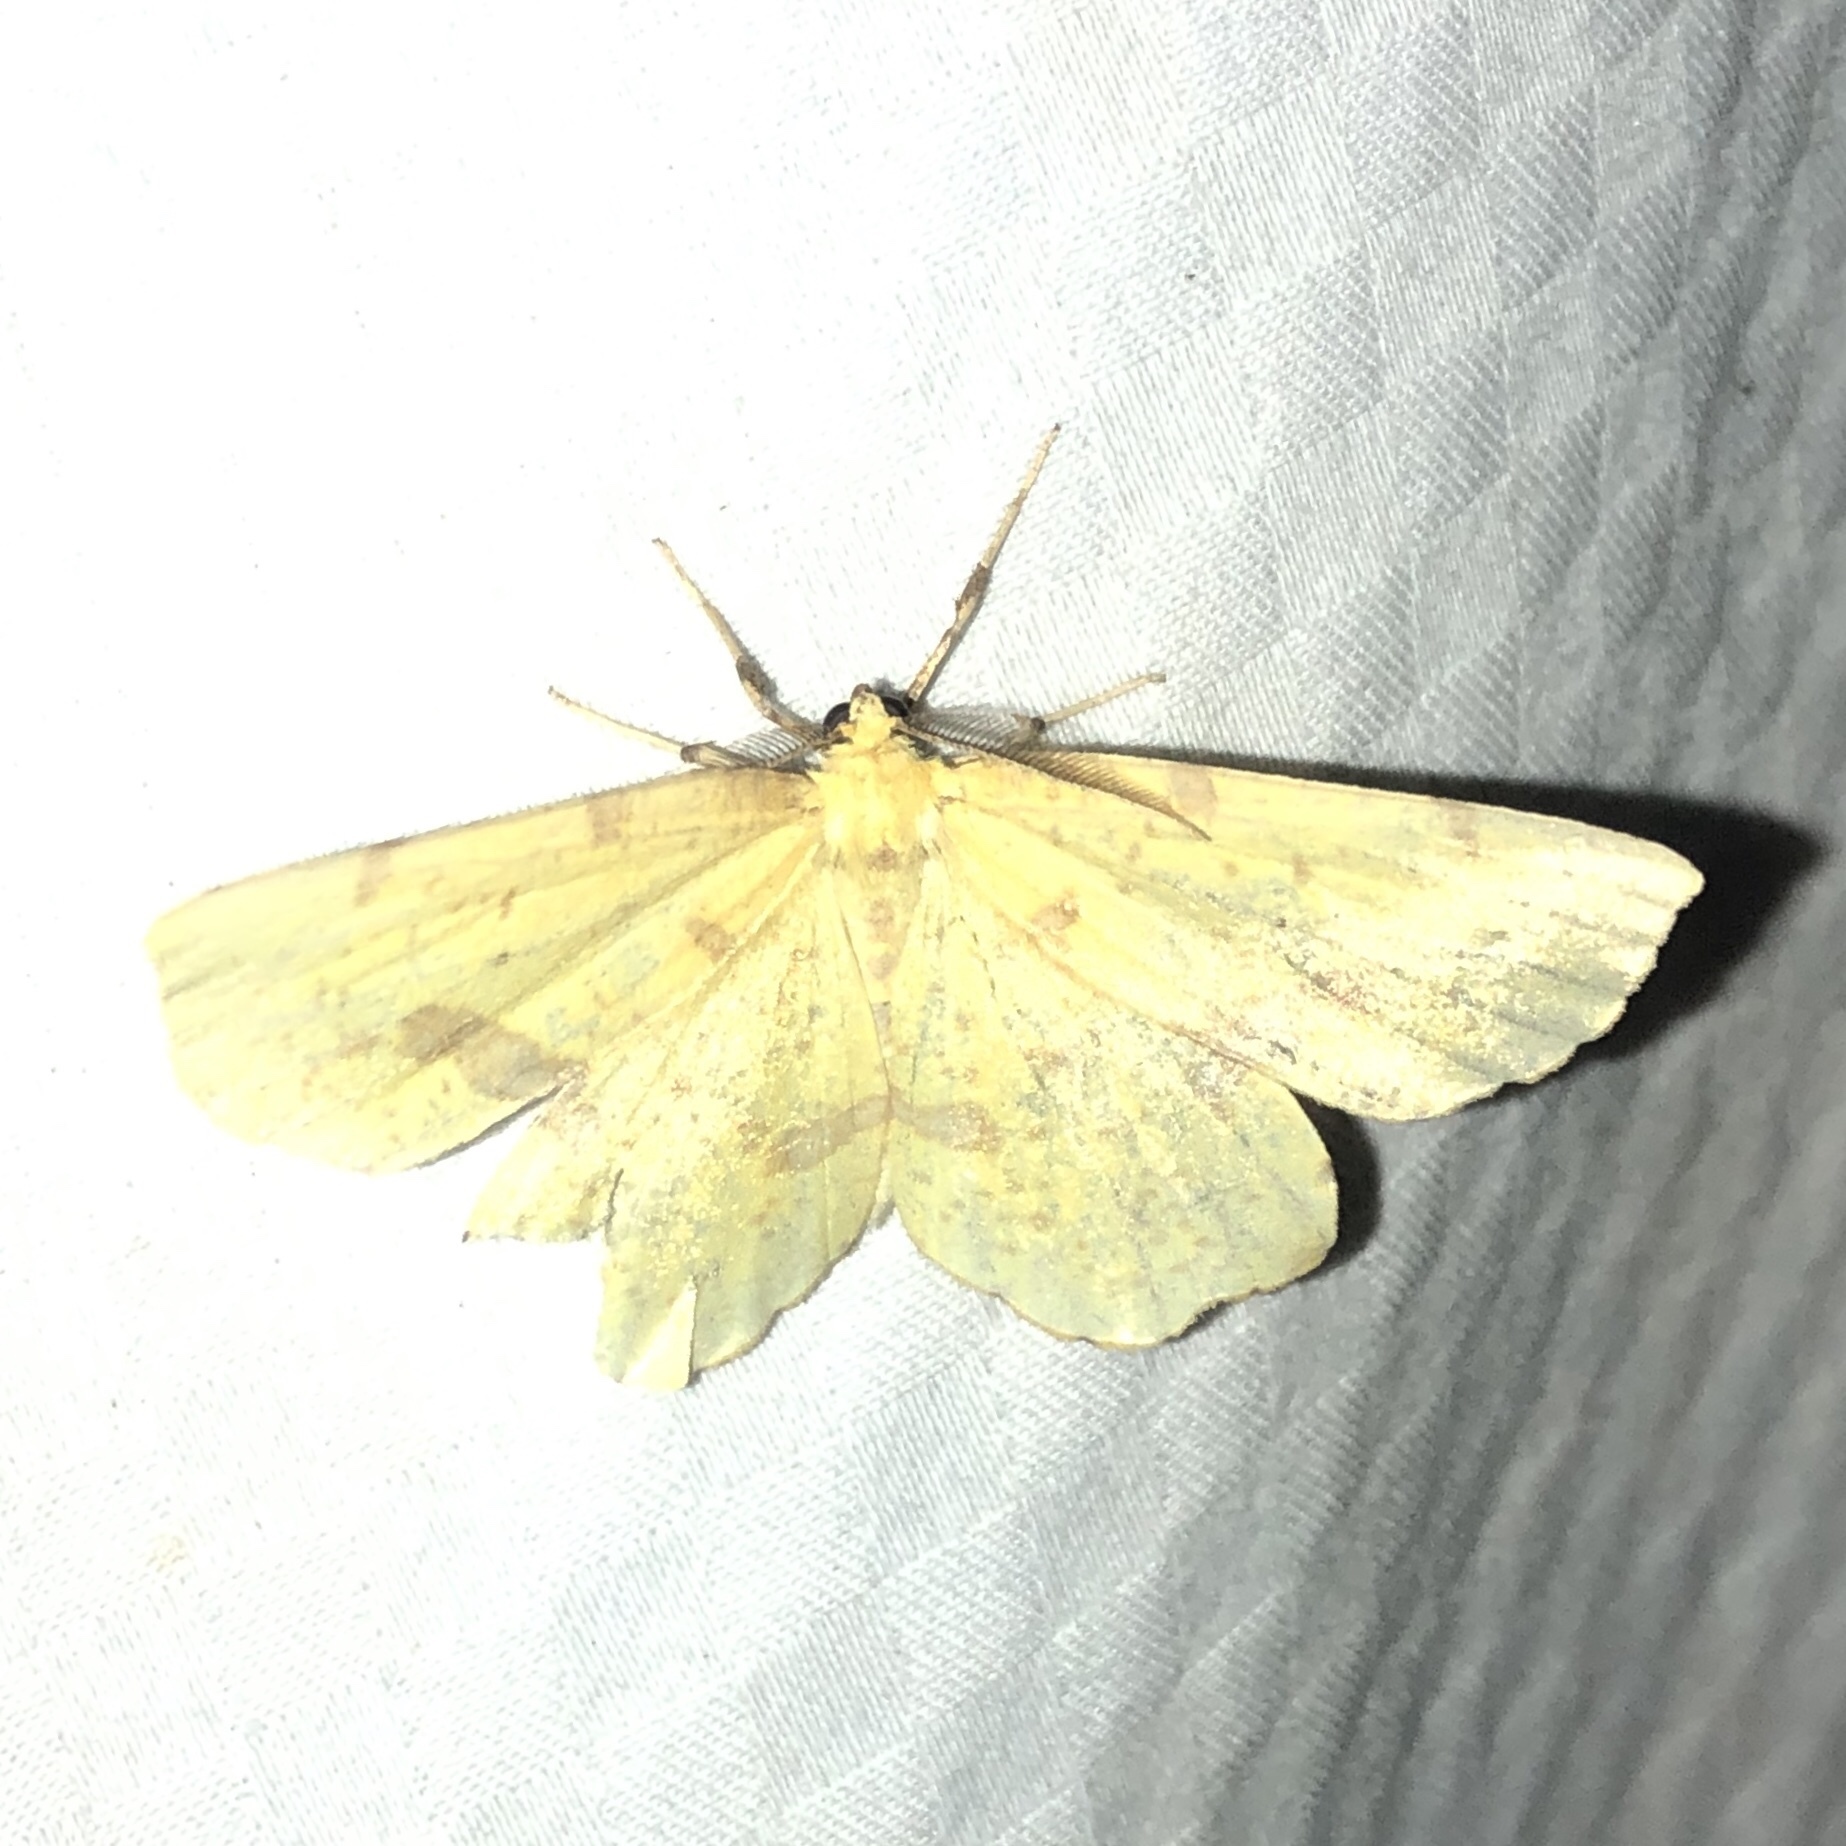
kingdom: Animalia
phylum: Arthropoda
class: Insecta
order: Lepidoptera
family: Geometridae
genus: Xanthotype
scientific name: Xanthotype
